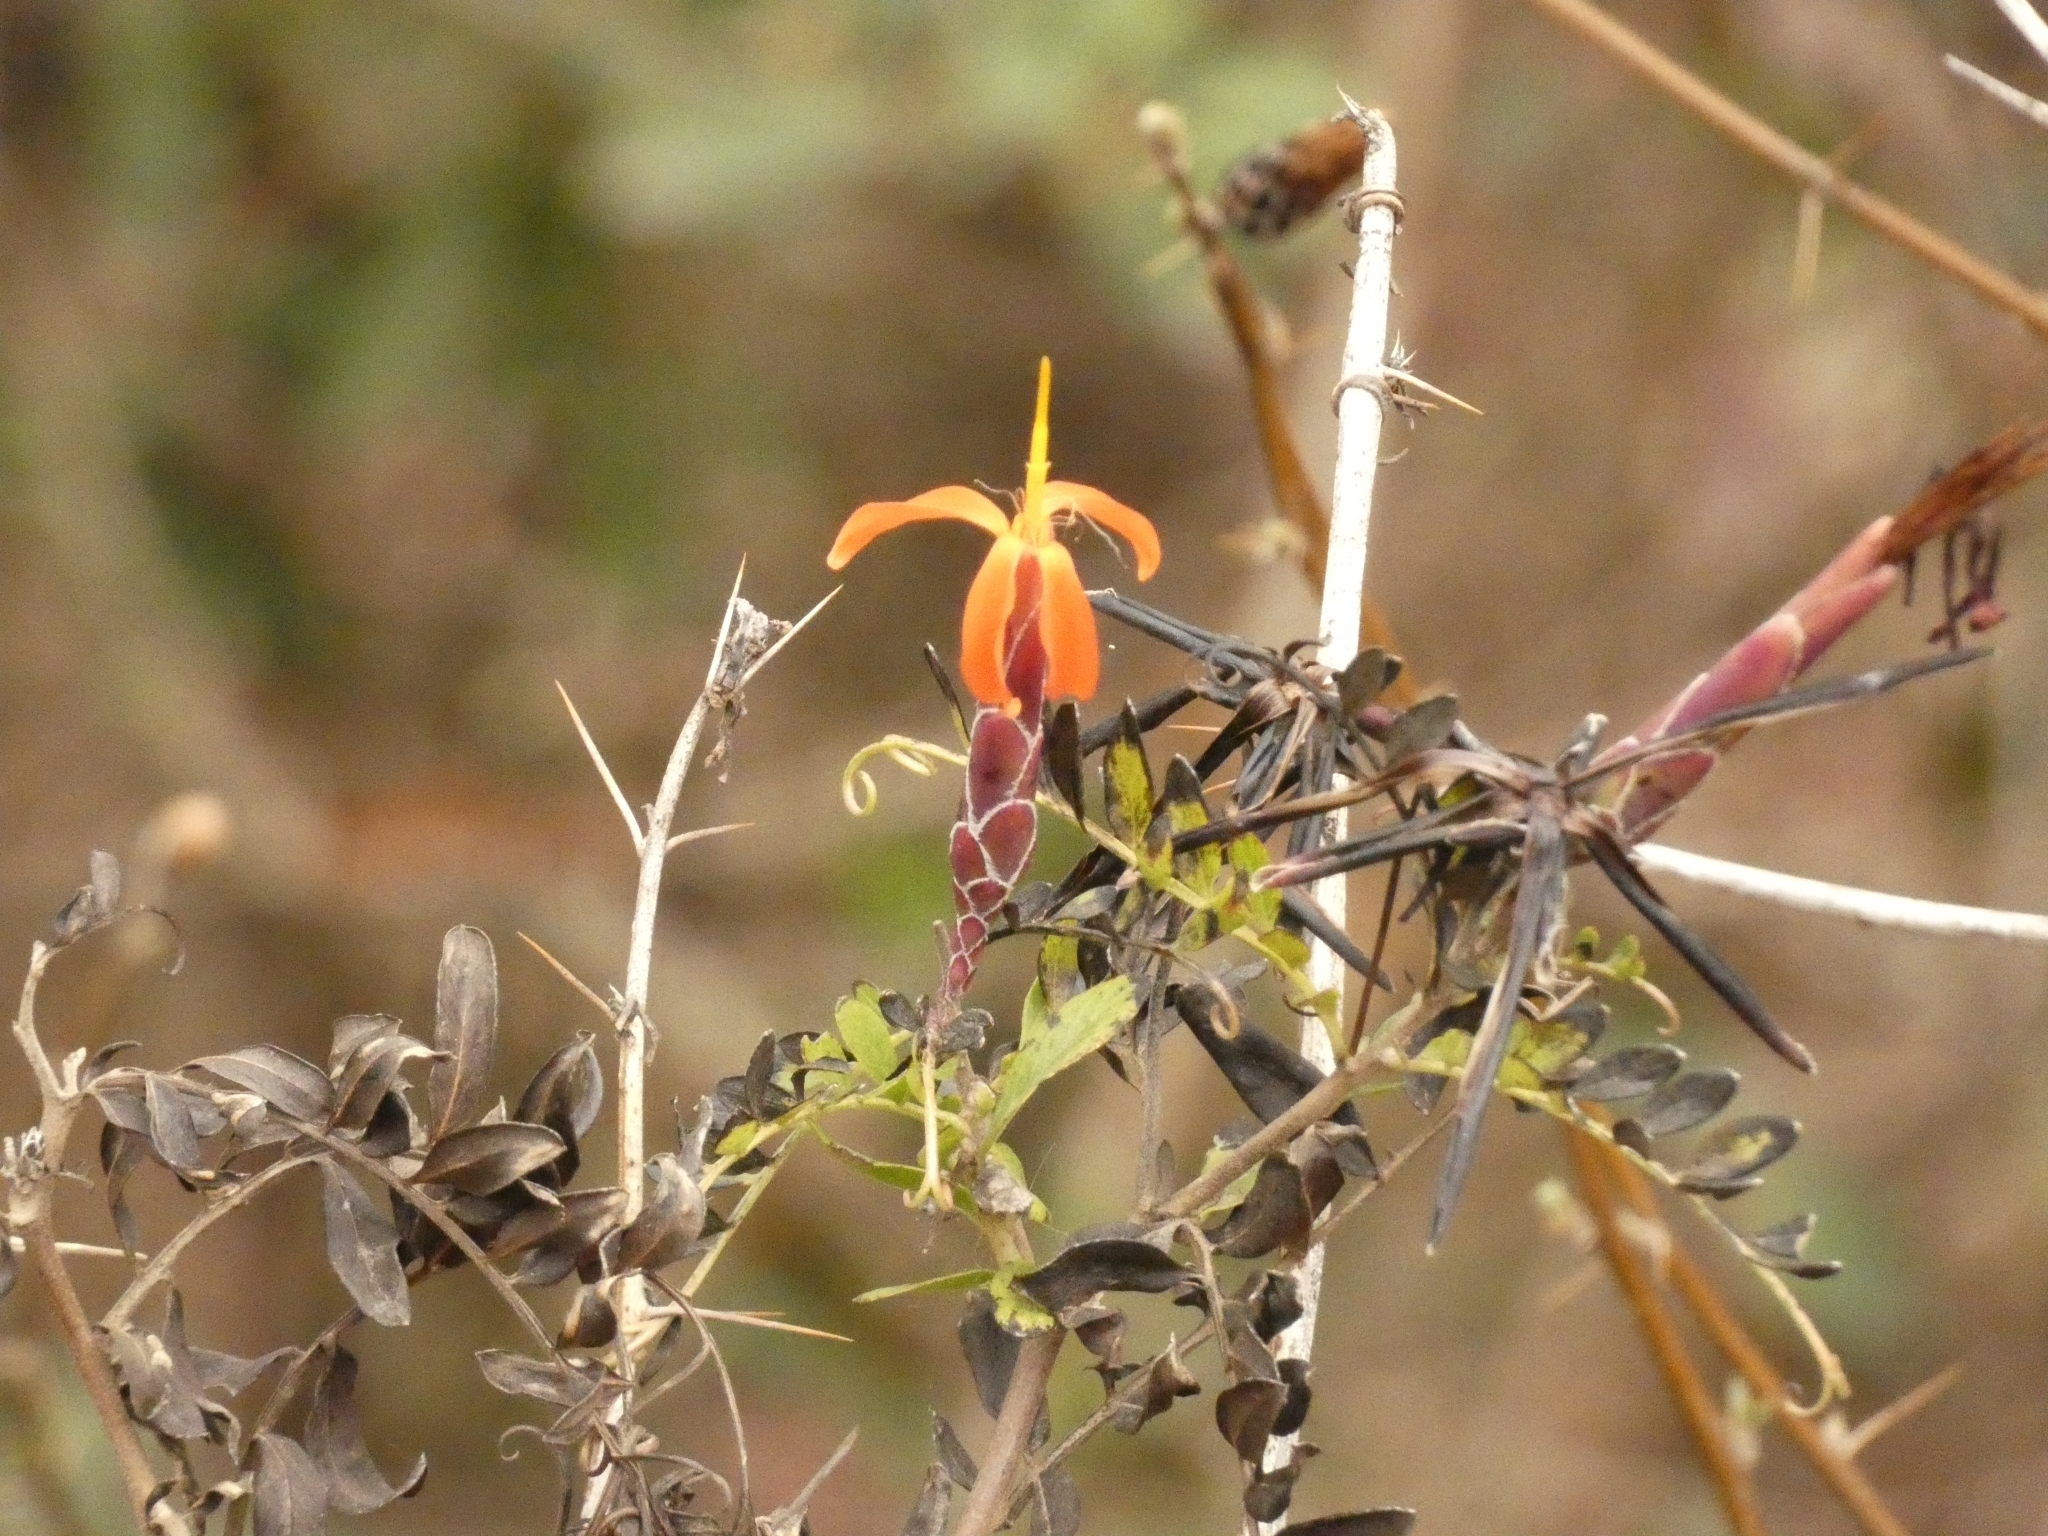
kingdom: Plantae
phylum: Tracheophyta
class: Magnoliopsida
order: Asterales
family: Asteraceae
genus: Mutisia
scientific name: Mutisia acuminata
